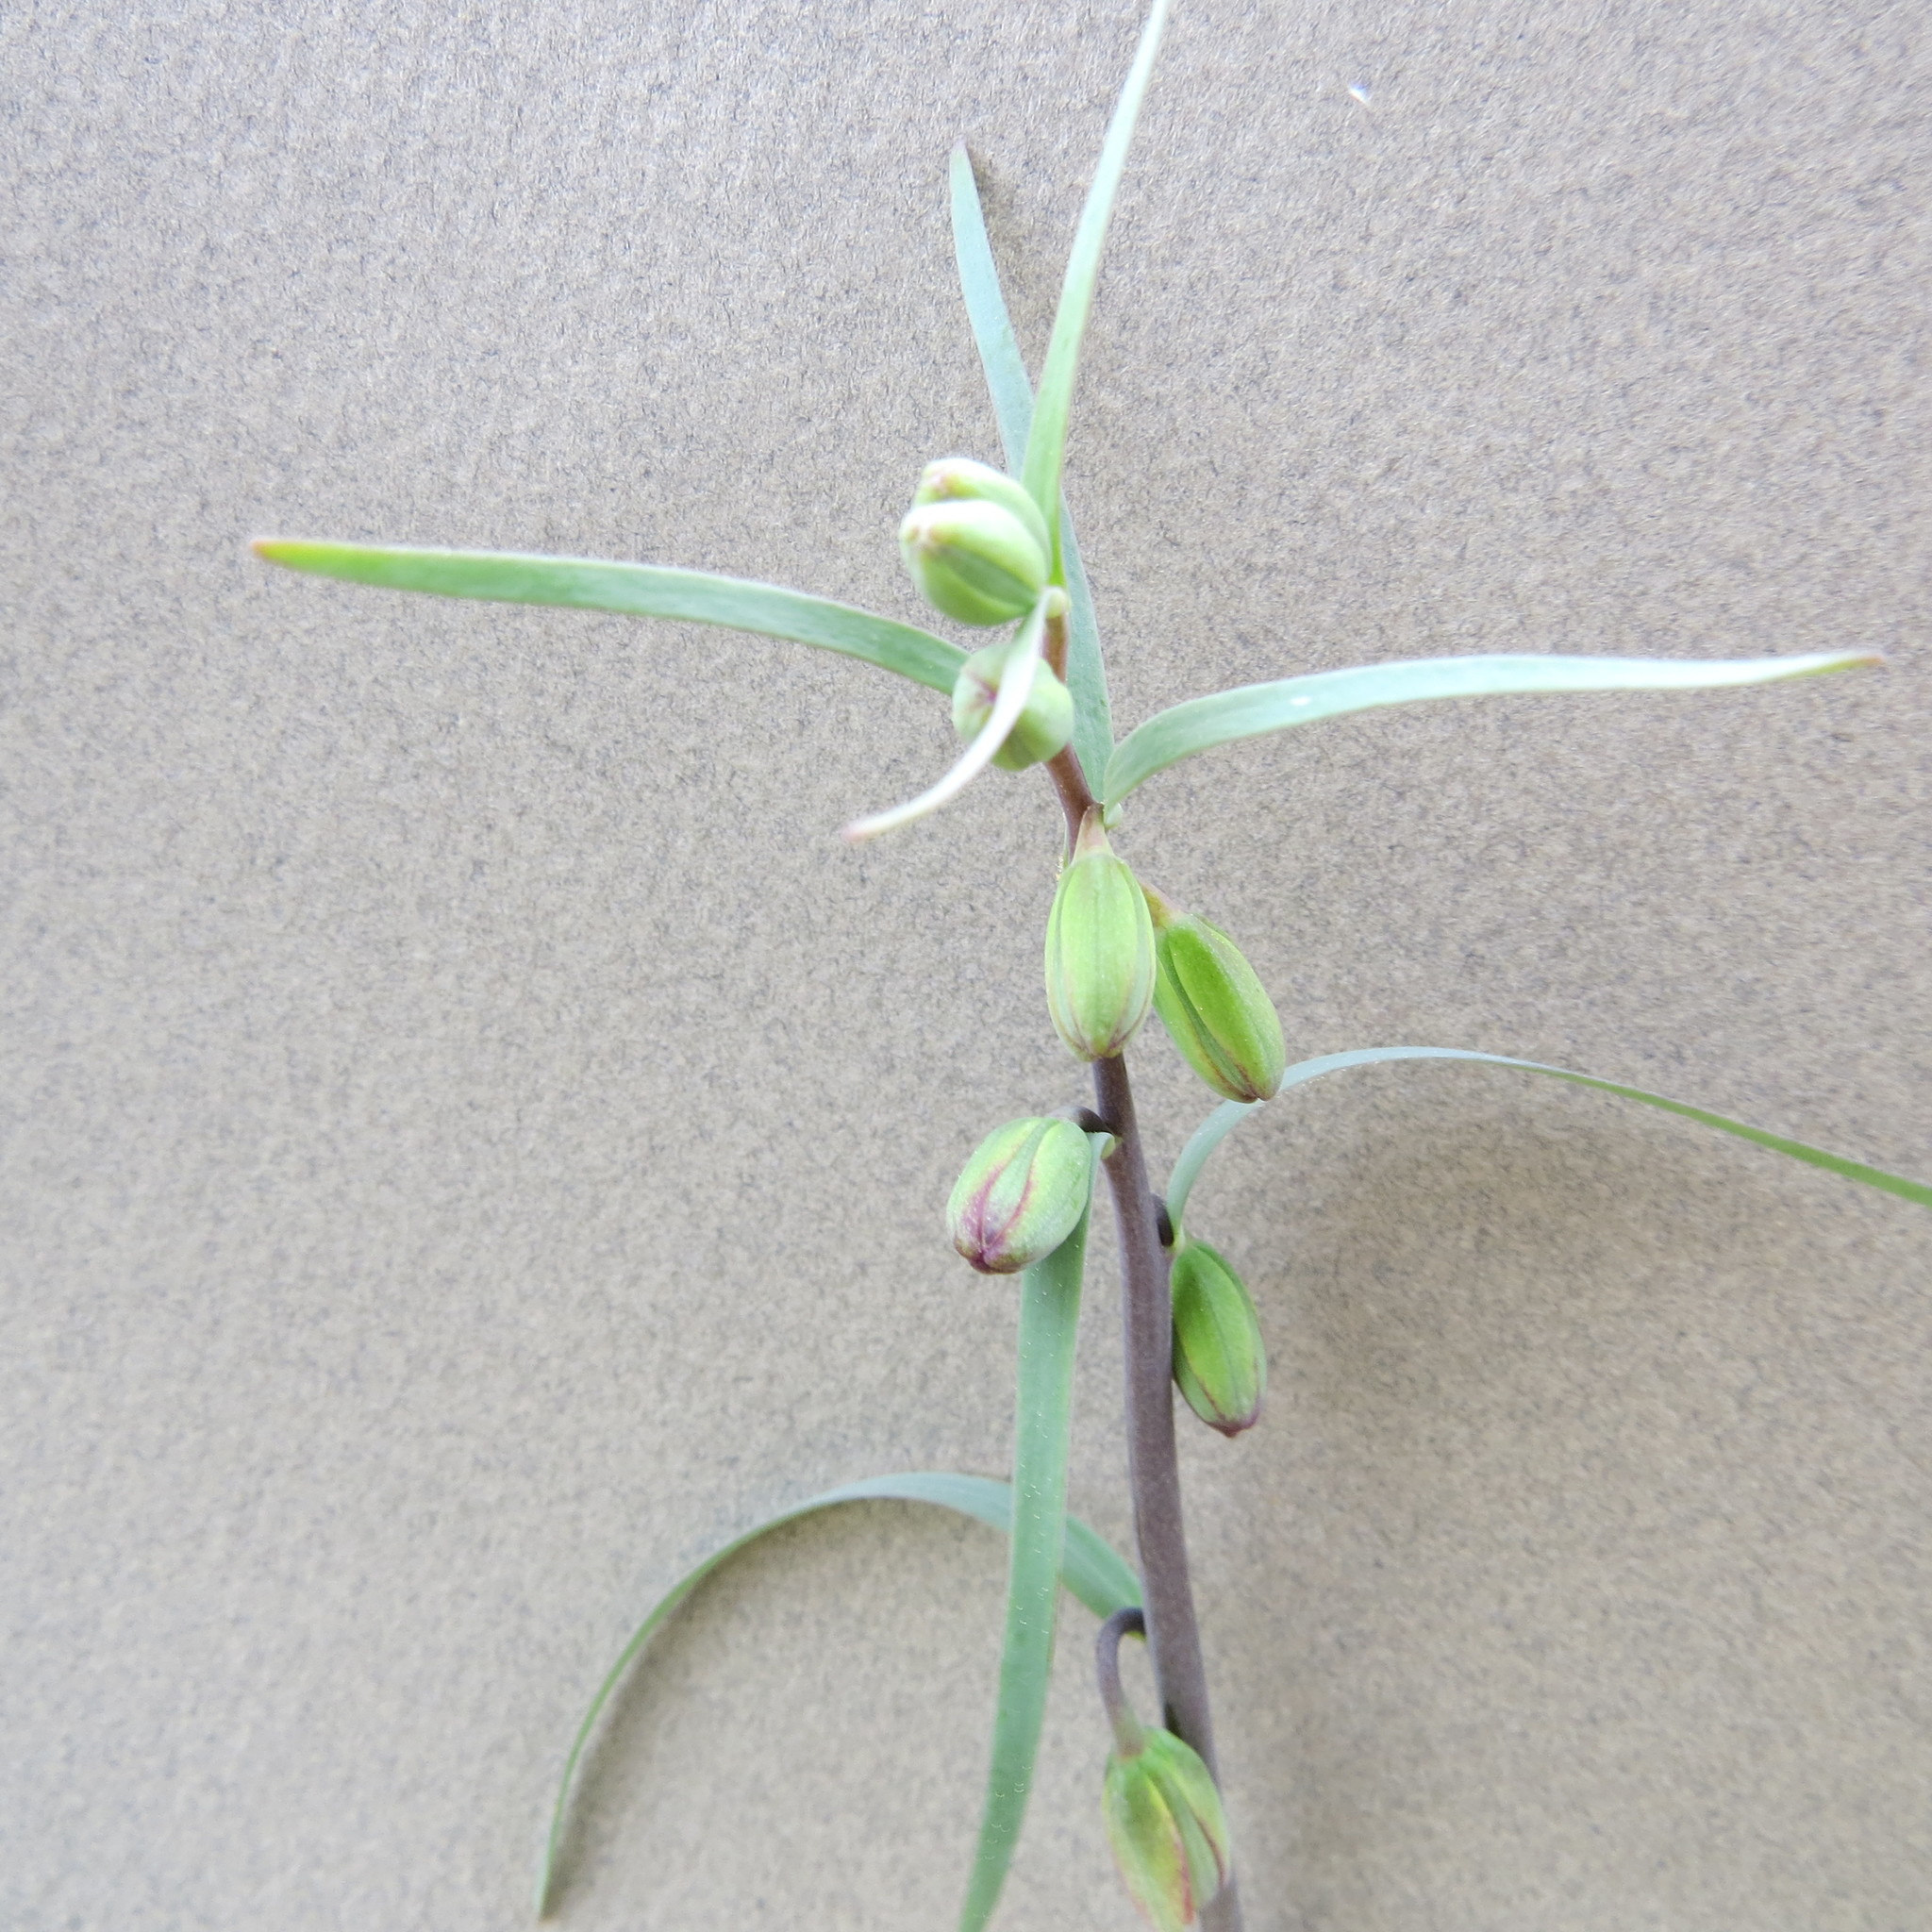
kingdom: Plantae
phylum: Tracheophyta
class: Liliopsida
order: Liliales
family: Liliaceae
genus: Fritillaria
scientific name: Fritillaria micrantha
